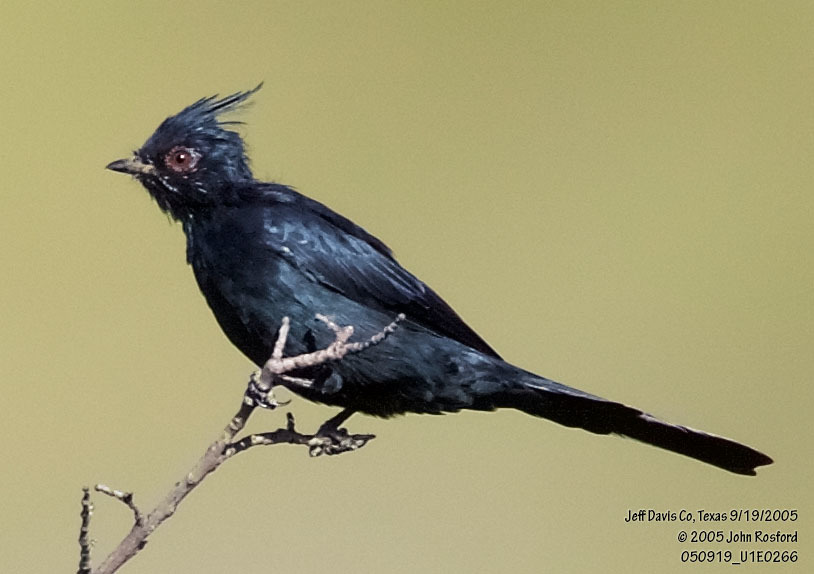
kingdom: Animalia
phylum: Chordata
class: Aves
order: Passeriformes
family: Ptilogonatidae
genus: Phainopepla
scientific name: Phainopepla nitens
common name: Phainopepla
